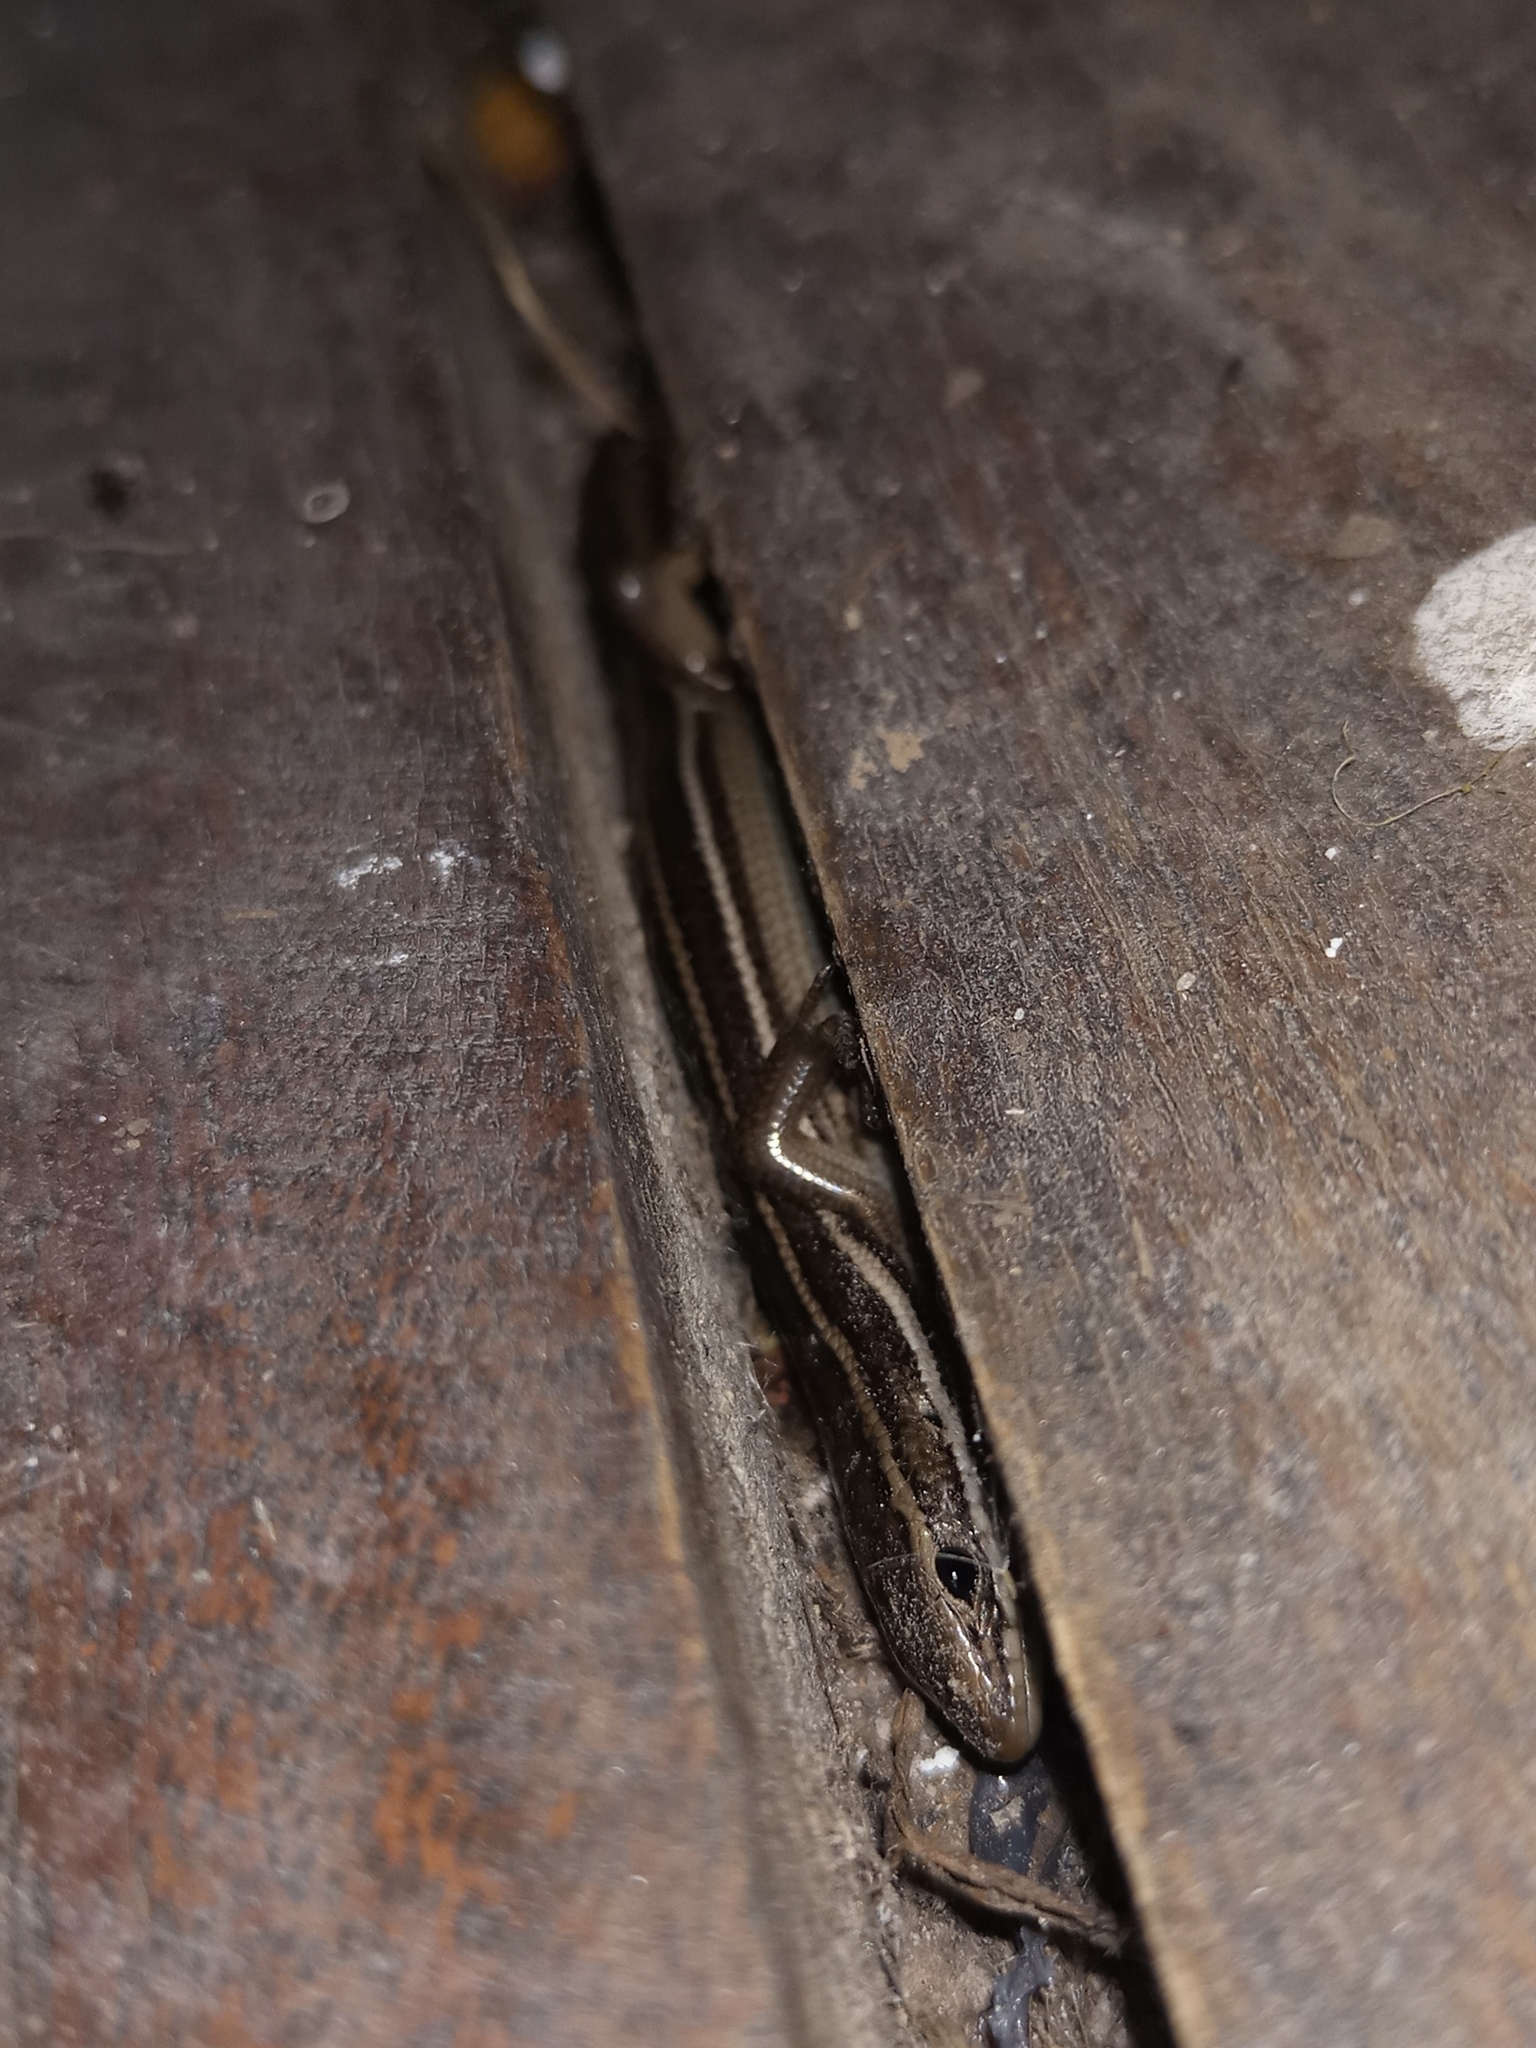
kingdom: Animalia
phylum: Chordata
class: Squamata
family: Scincidae
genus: Aspronema
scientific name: Aspronema dorsivittatum
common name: Paraguay mabuya
